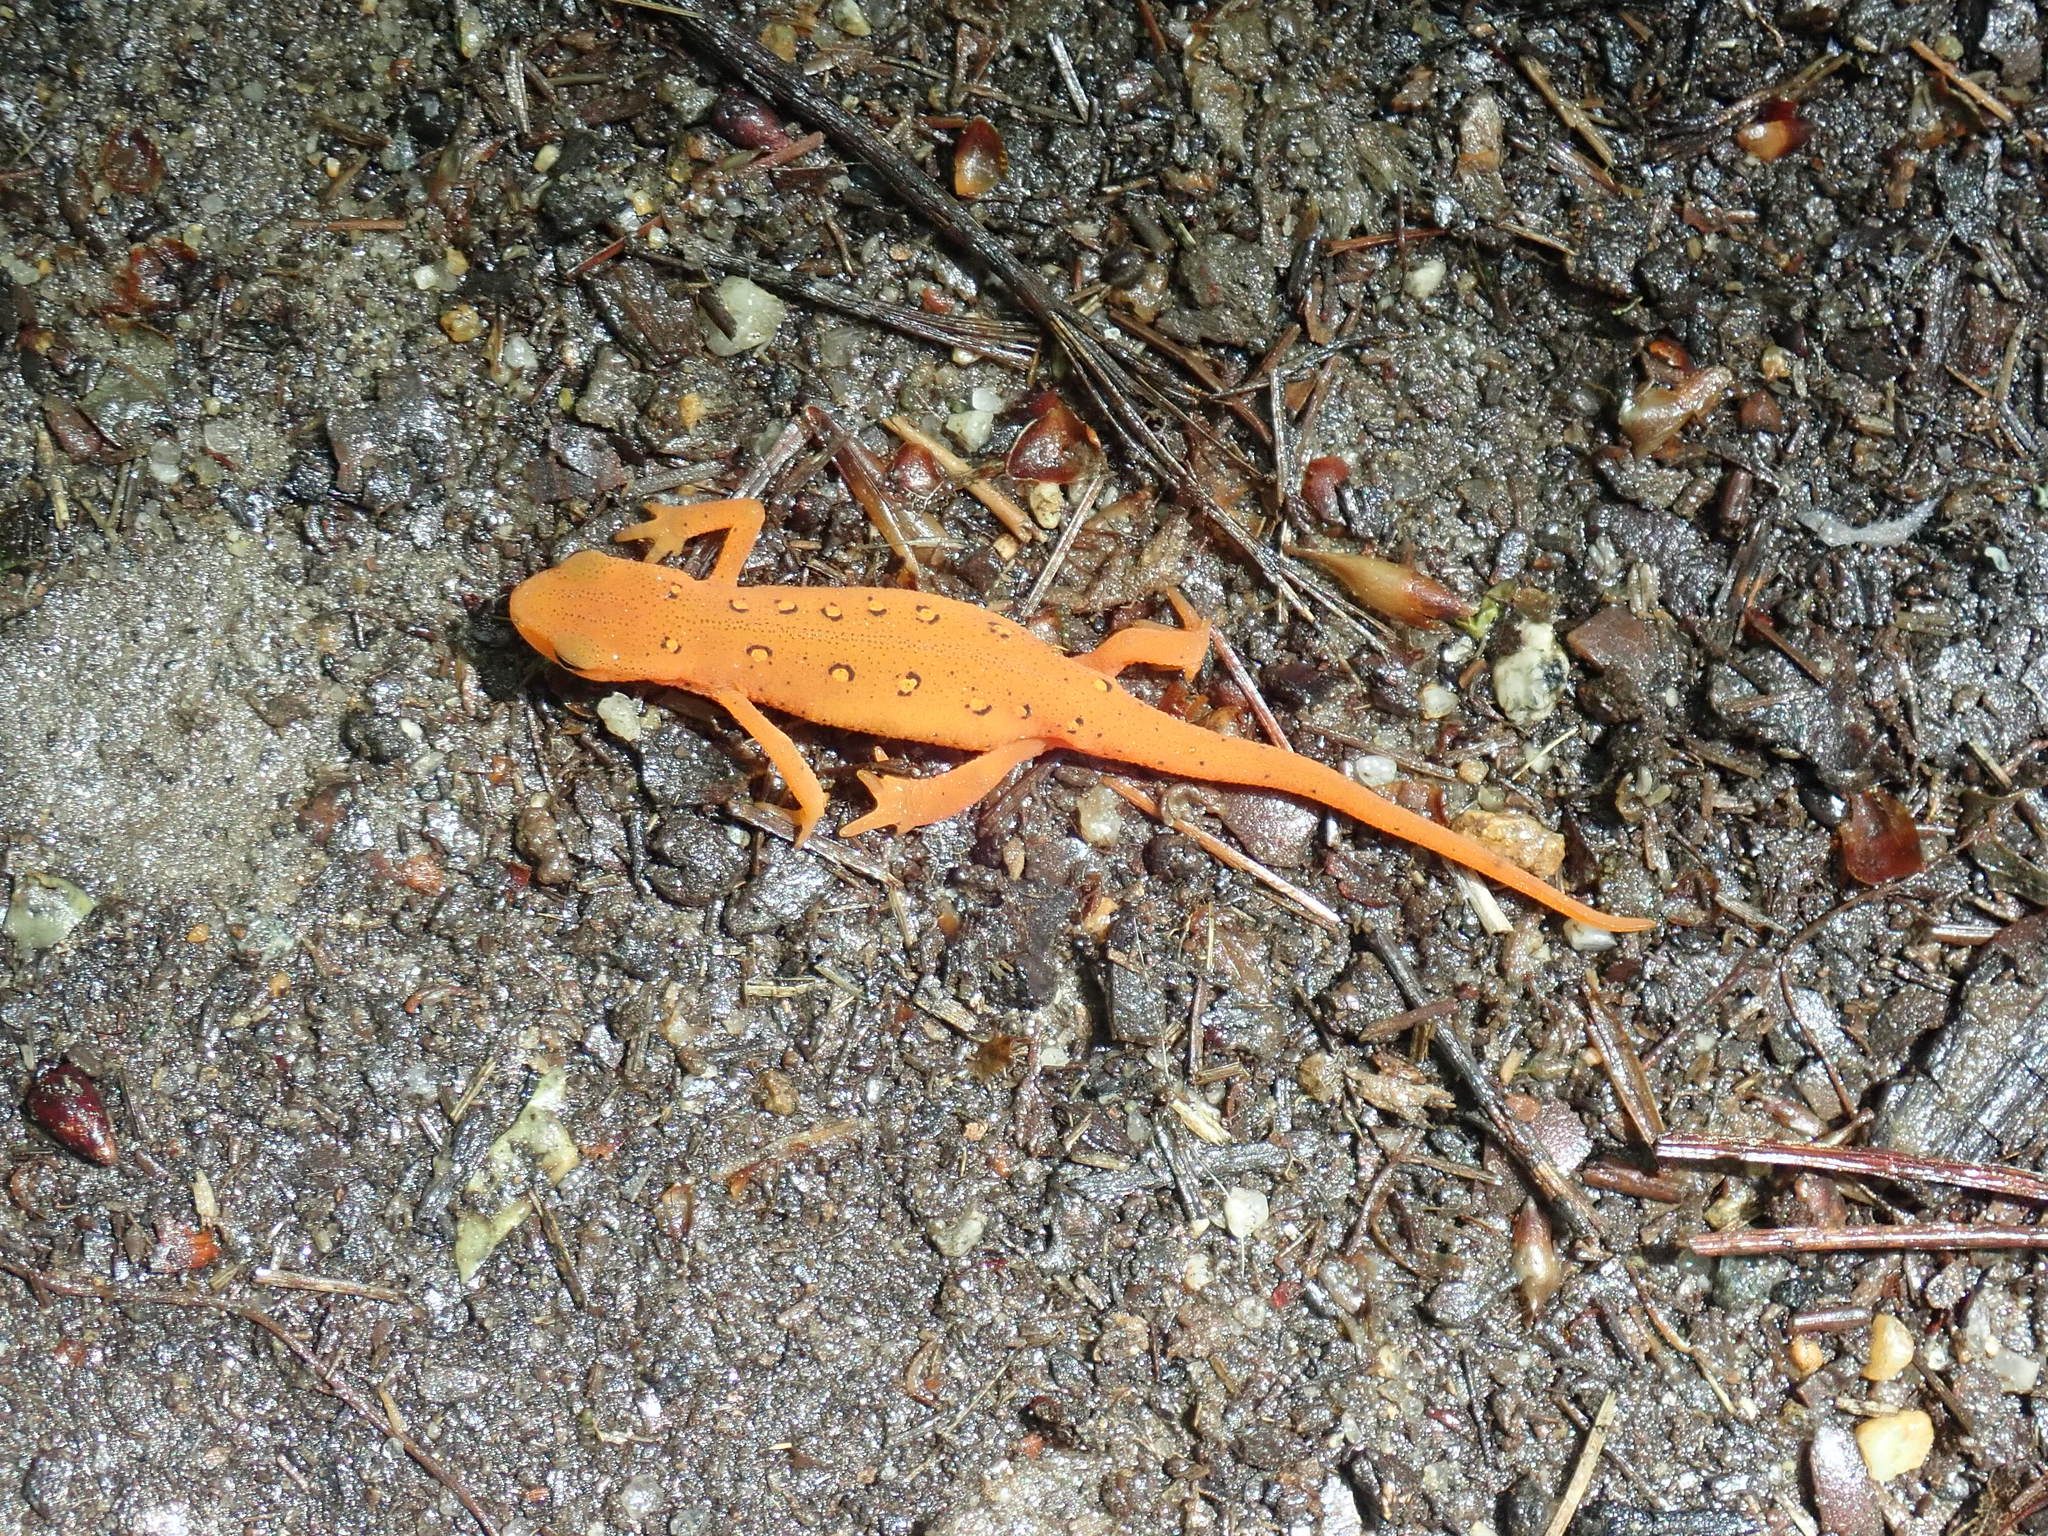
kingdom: Animalia
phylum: Chordata
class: Amphibia
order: Caudata
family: Salamandridae
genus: Notophthalmus
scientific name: Notophthalmus viridescens
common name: Eastern newt
